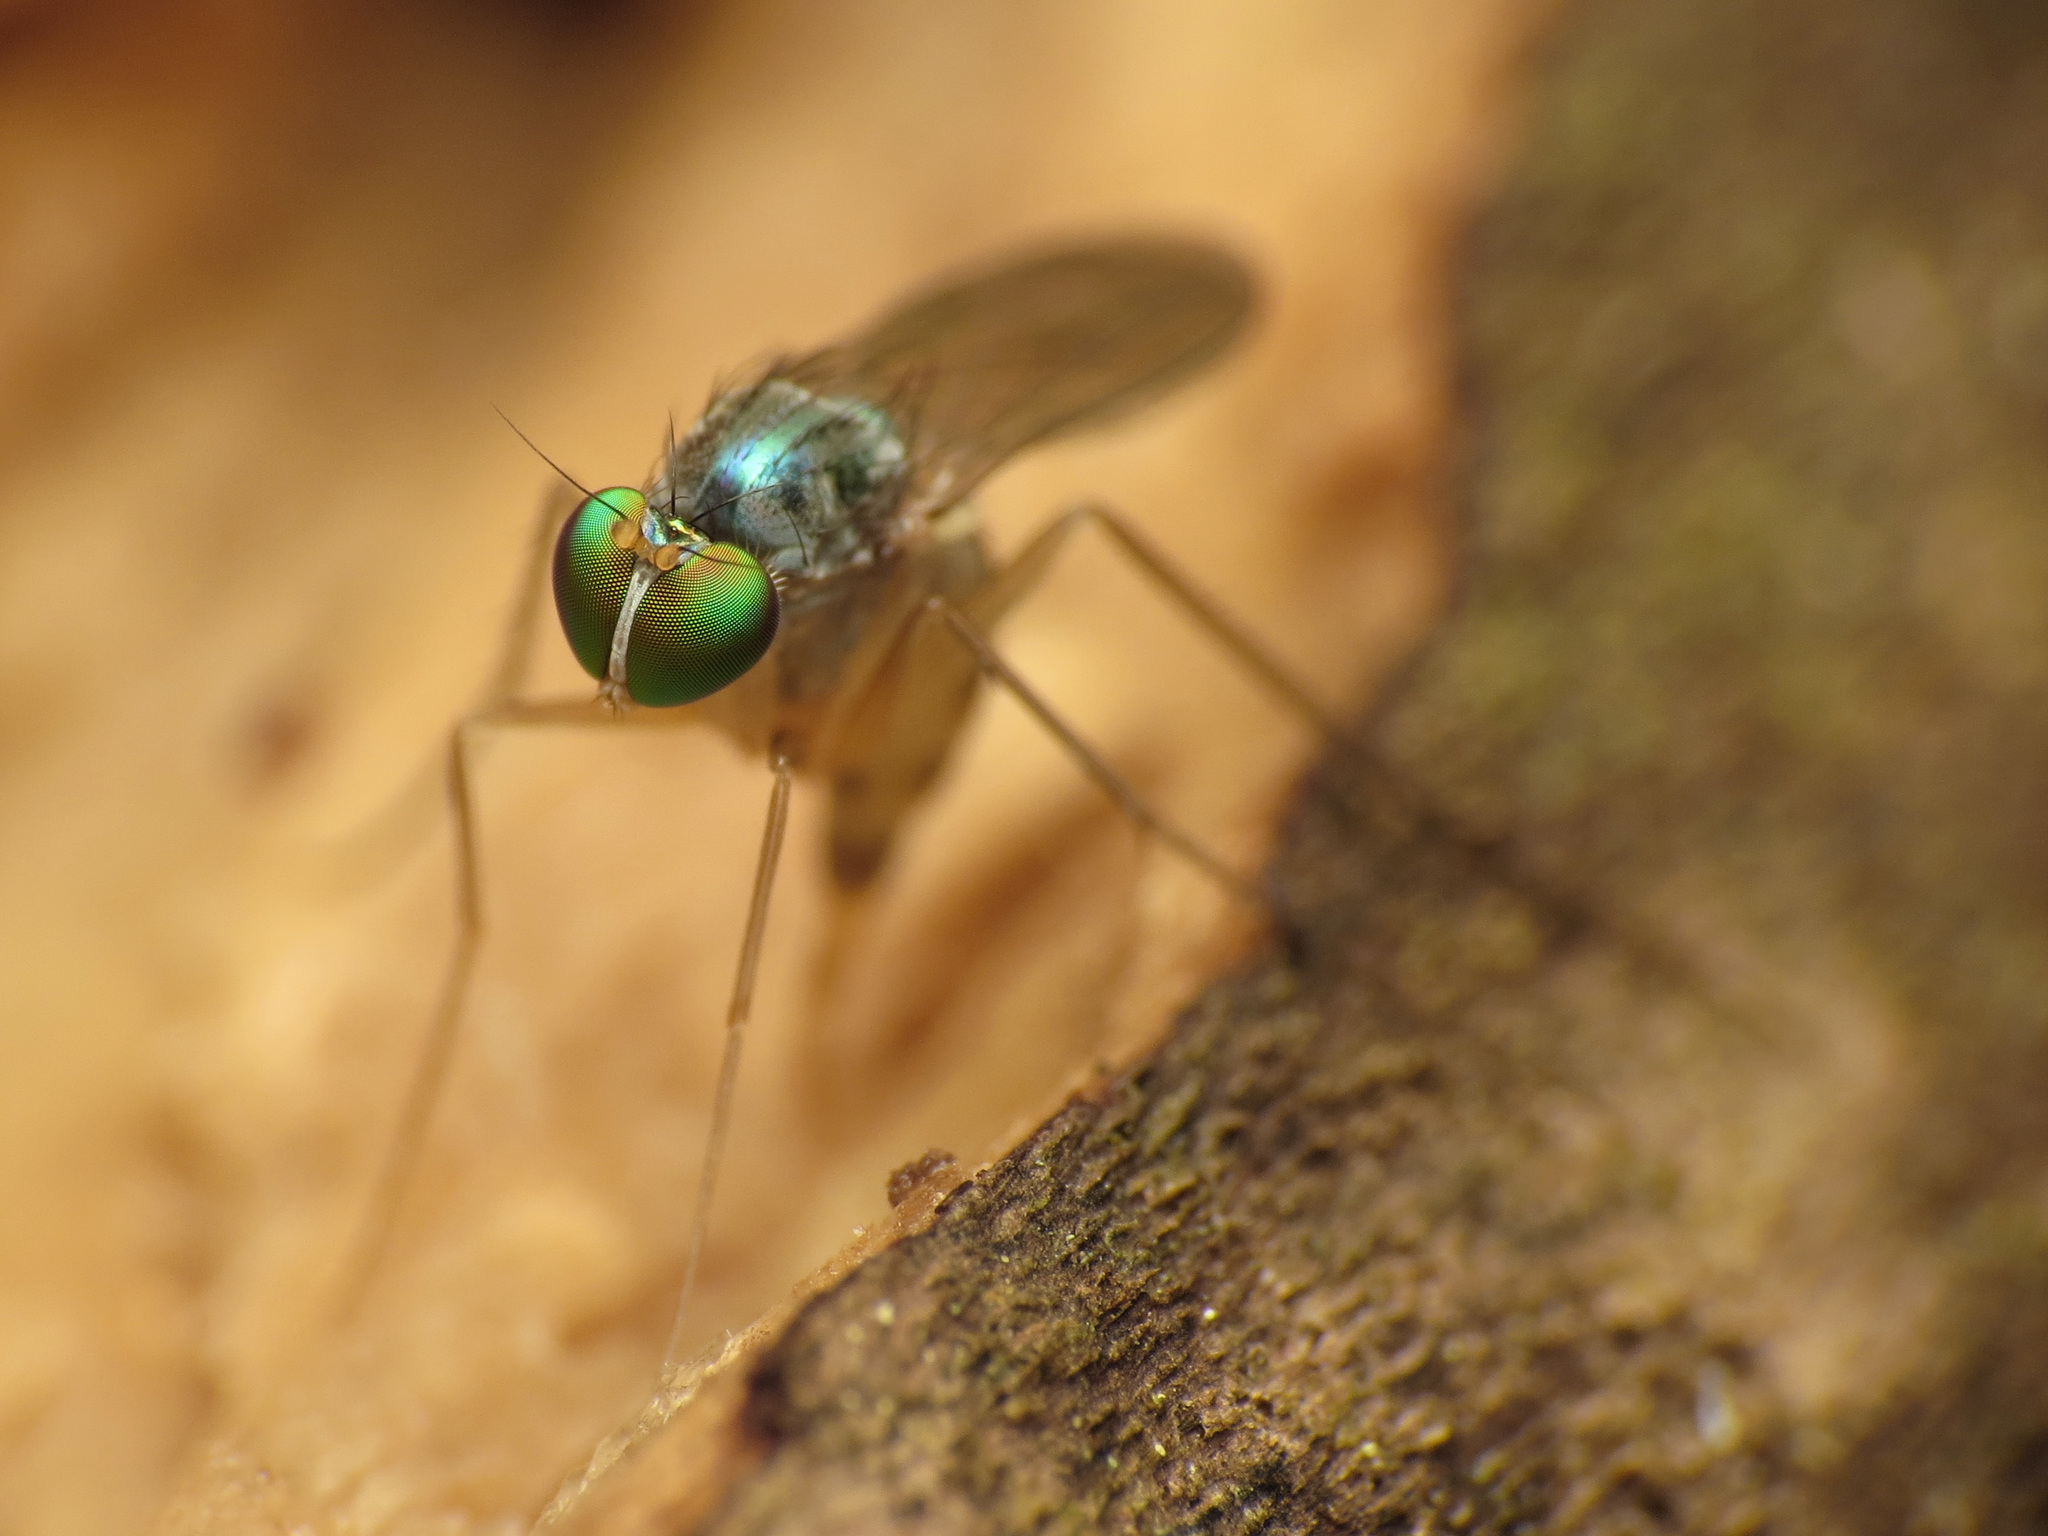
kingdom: Animalia
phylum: Arthropoda
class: Insecta
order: Diptera
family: Dolichopodidae
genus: Neurigona
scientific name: Neurigona deformis
